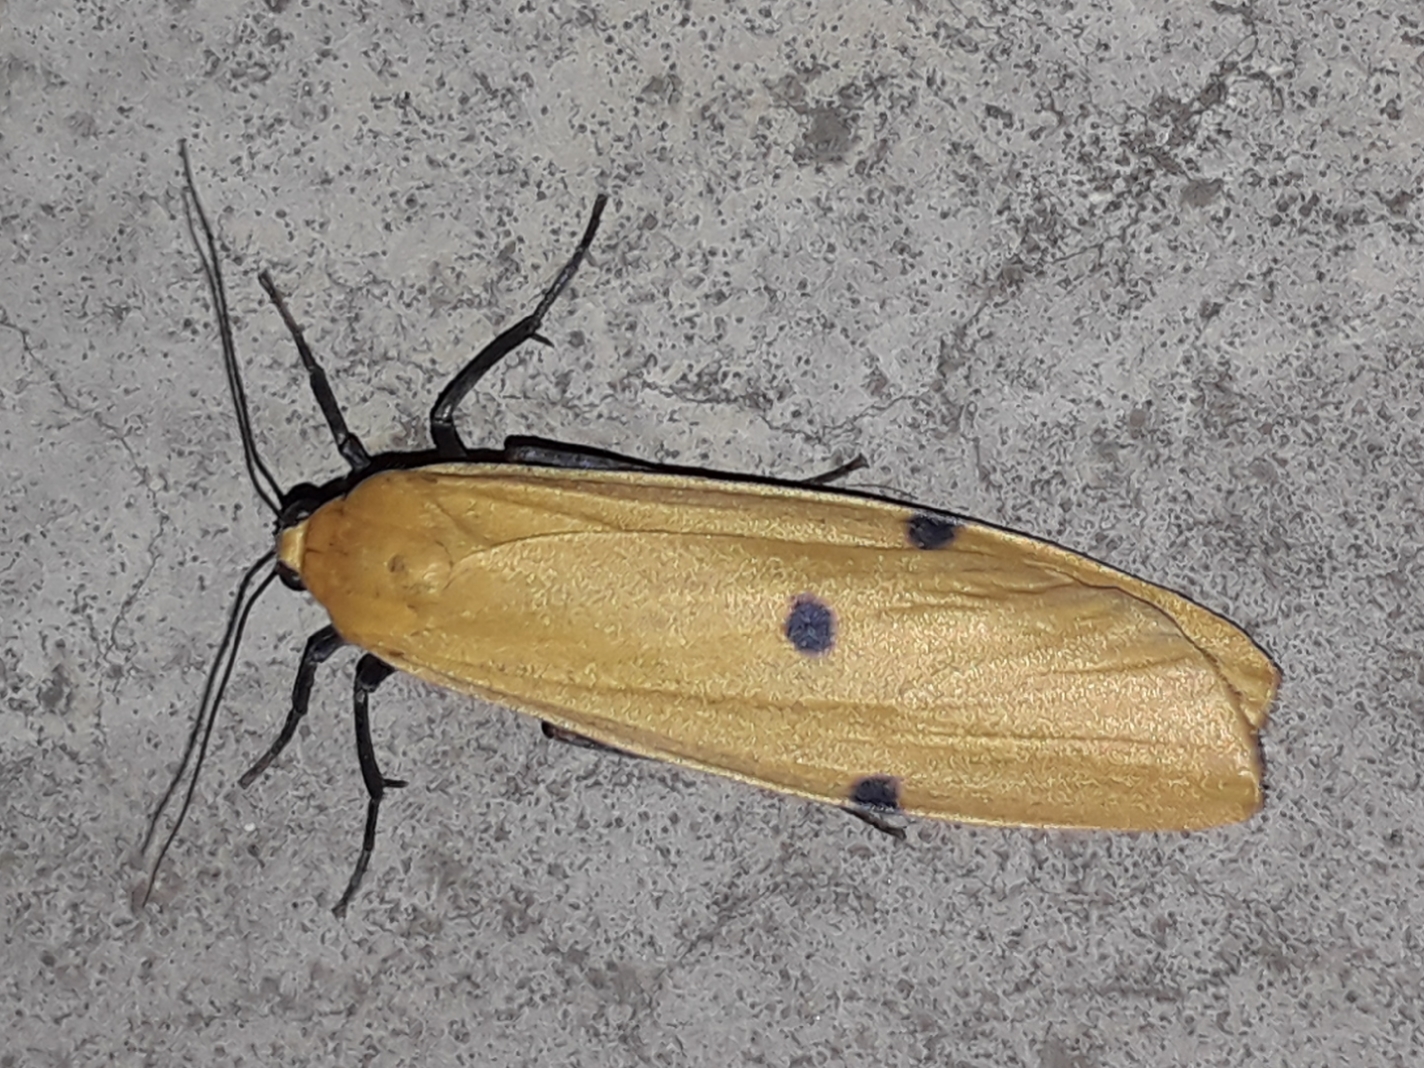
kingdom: Animalia
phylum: Arthropoda
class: Insecta
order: Lepidoptera
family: Erebidae
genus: Lithosia
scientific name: Lithosia quadra
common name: Four-spotted footman
